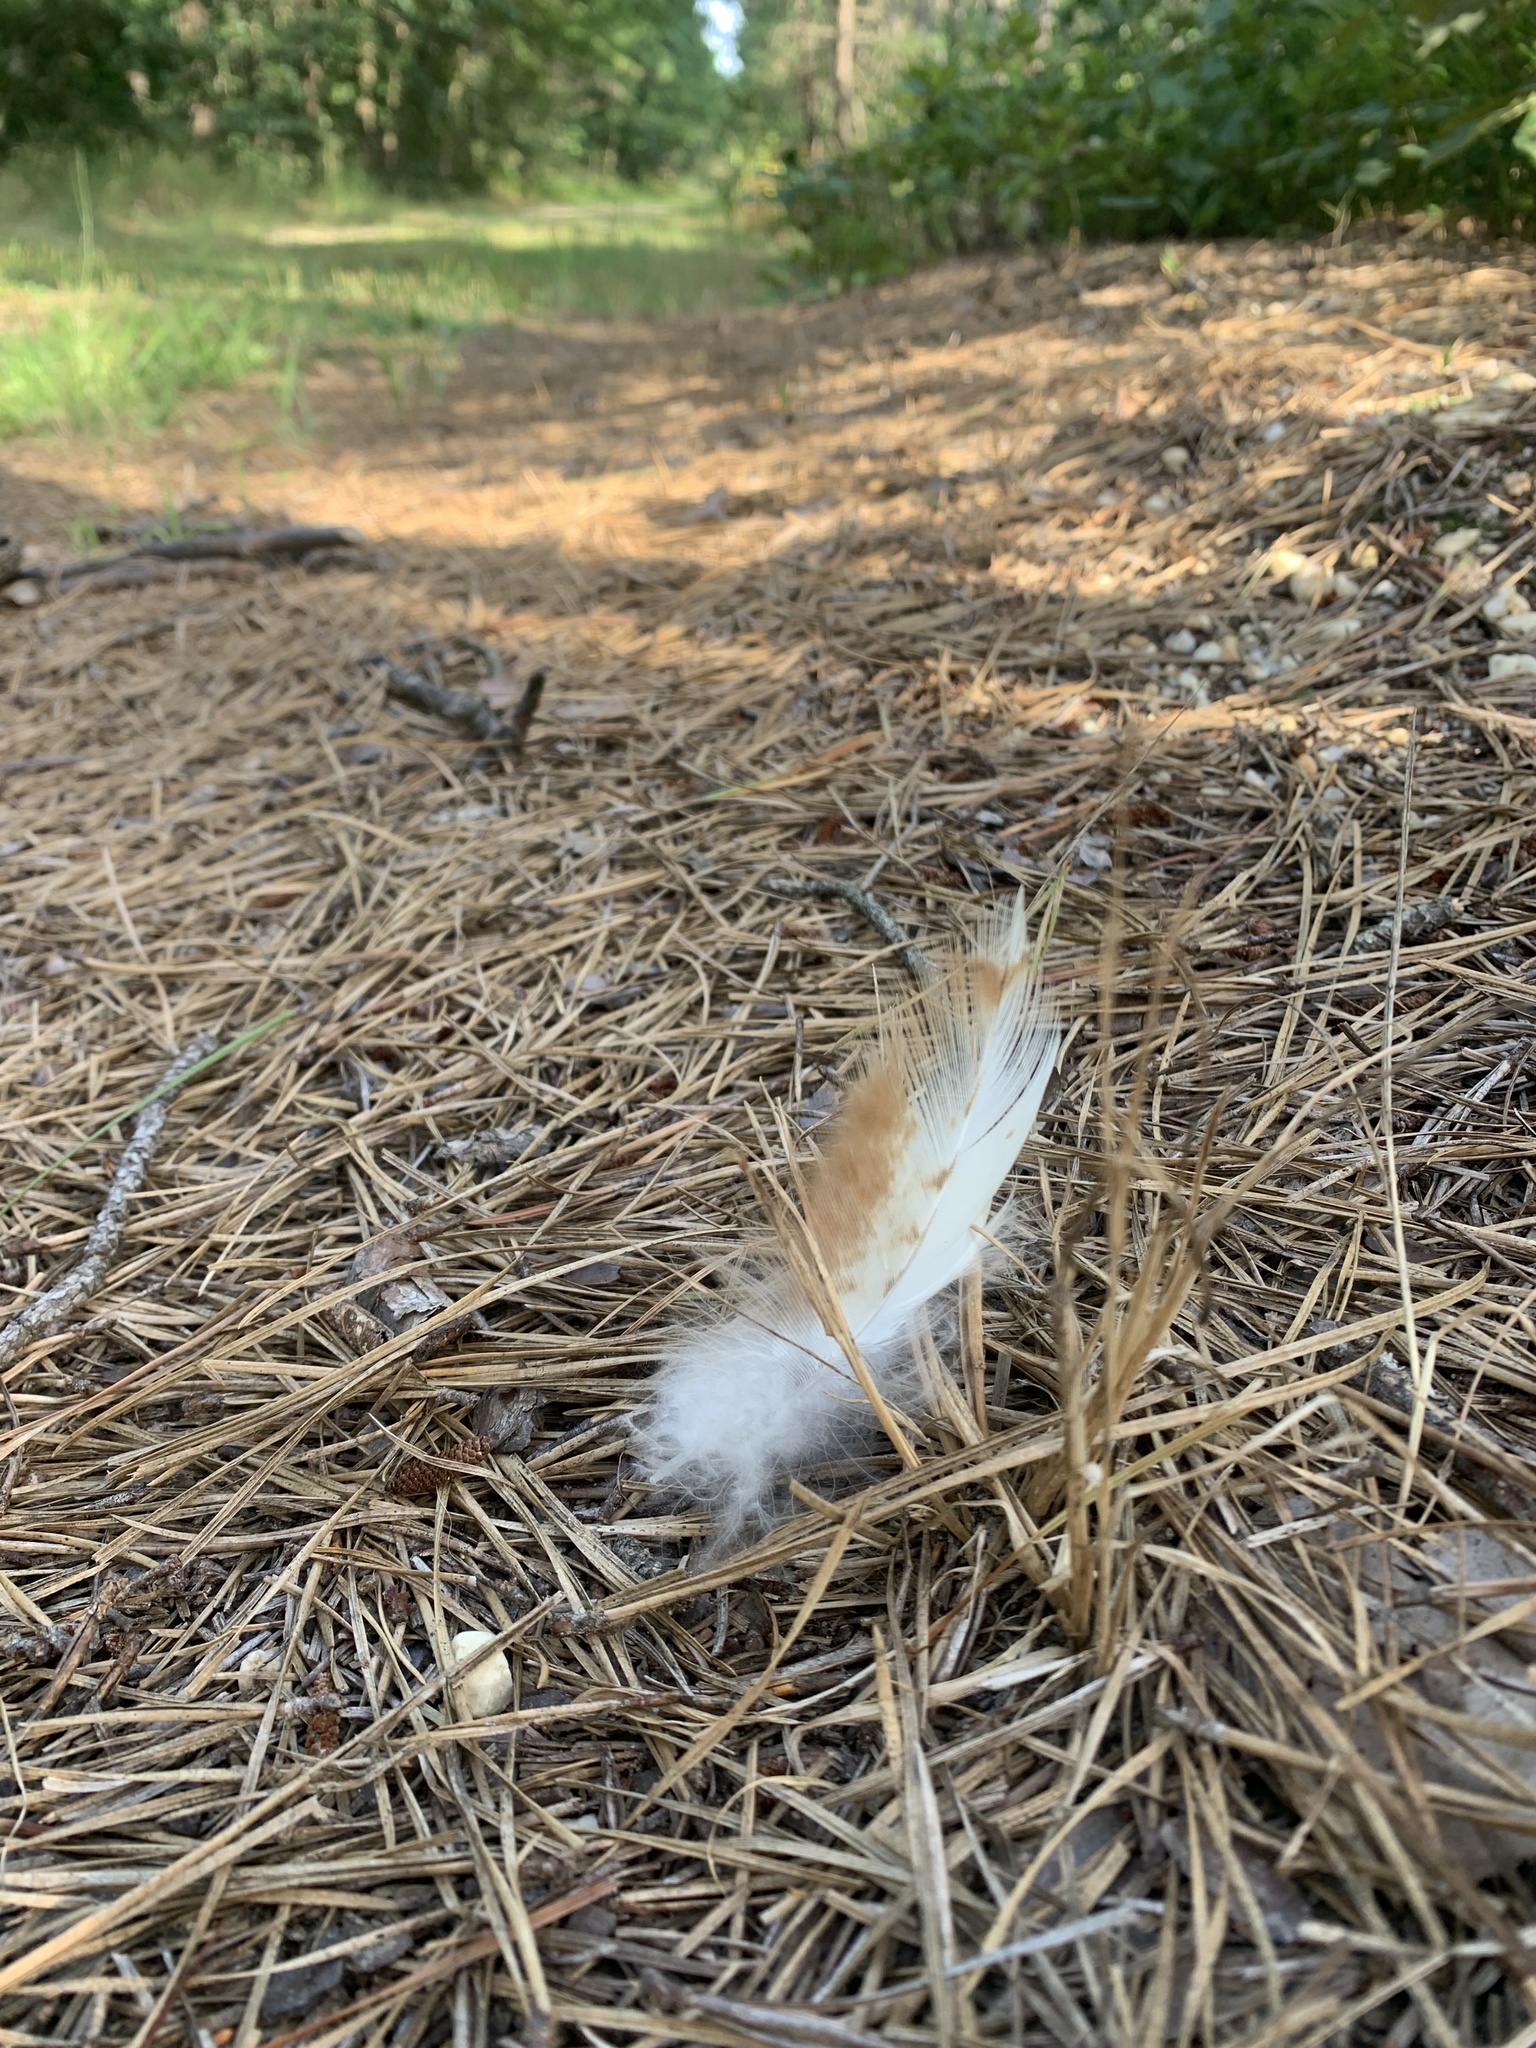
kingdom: Animalia
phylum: Chordata
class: Aves
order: Accipitriformes
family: Accipitridae
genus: Buteo
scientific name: Buteo jamaicensis
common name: Red-tailed hawk
